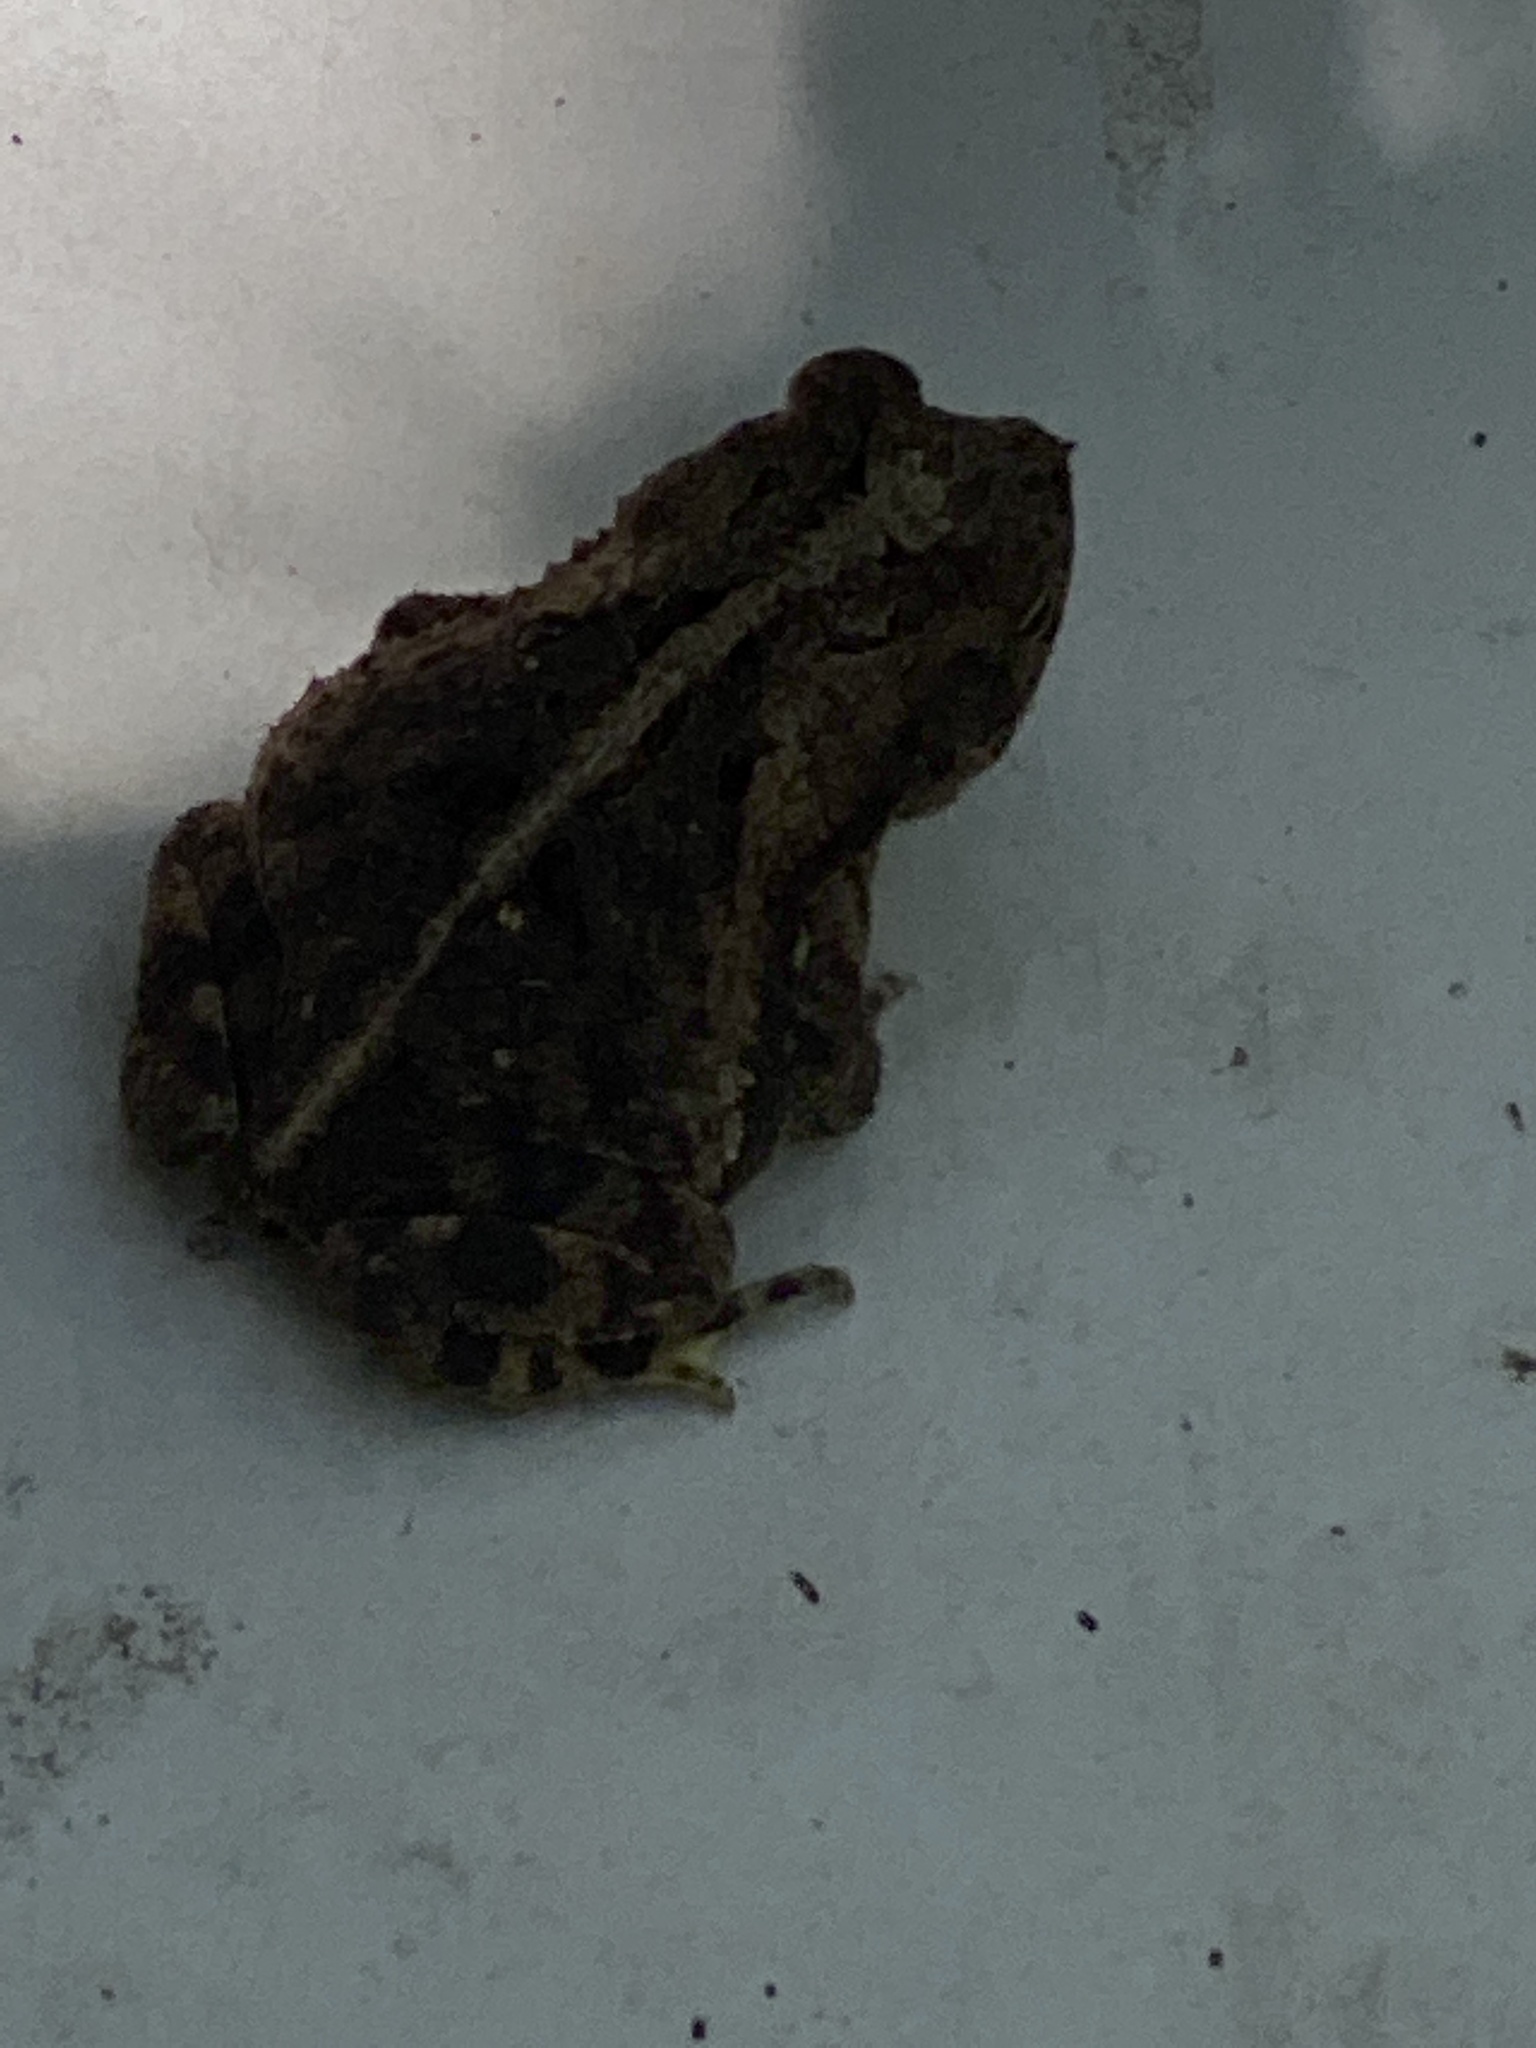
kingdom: Animalia
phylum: Chordata
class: Amphibia
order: Anura
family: Bufonidae
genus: Incilius
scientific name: Incilius nebulifer
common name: Gulf coast toad
